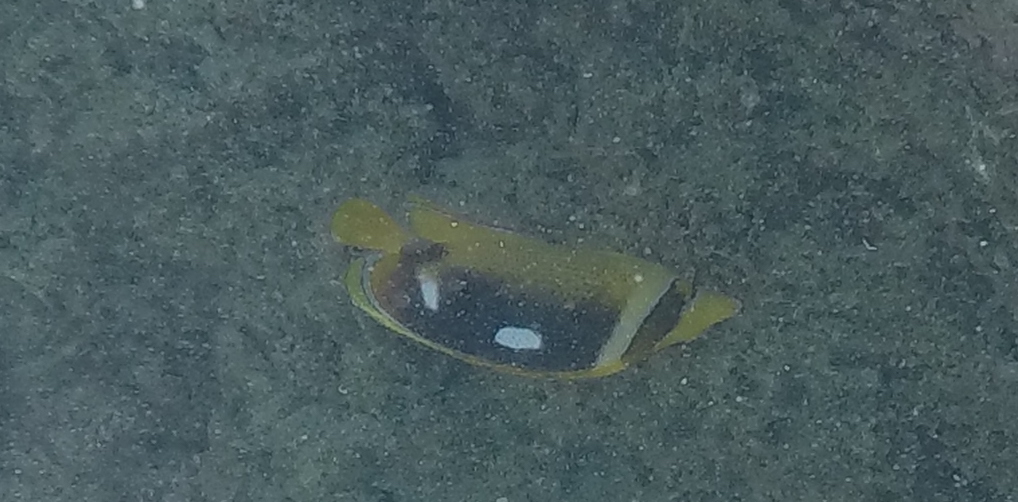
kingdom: Animalia
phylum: Chordata
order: Perciformes
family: Chaetodontidae
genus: Chaetodon
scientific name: Chaetodon quadrimaculatus
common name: Fourspot butterflyfish
